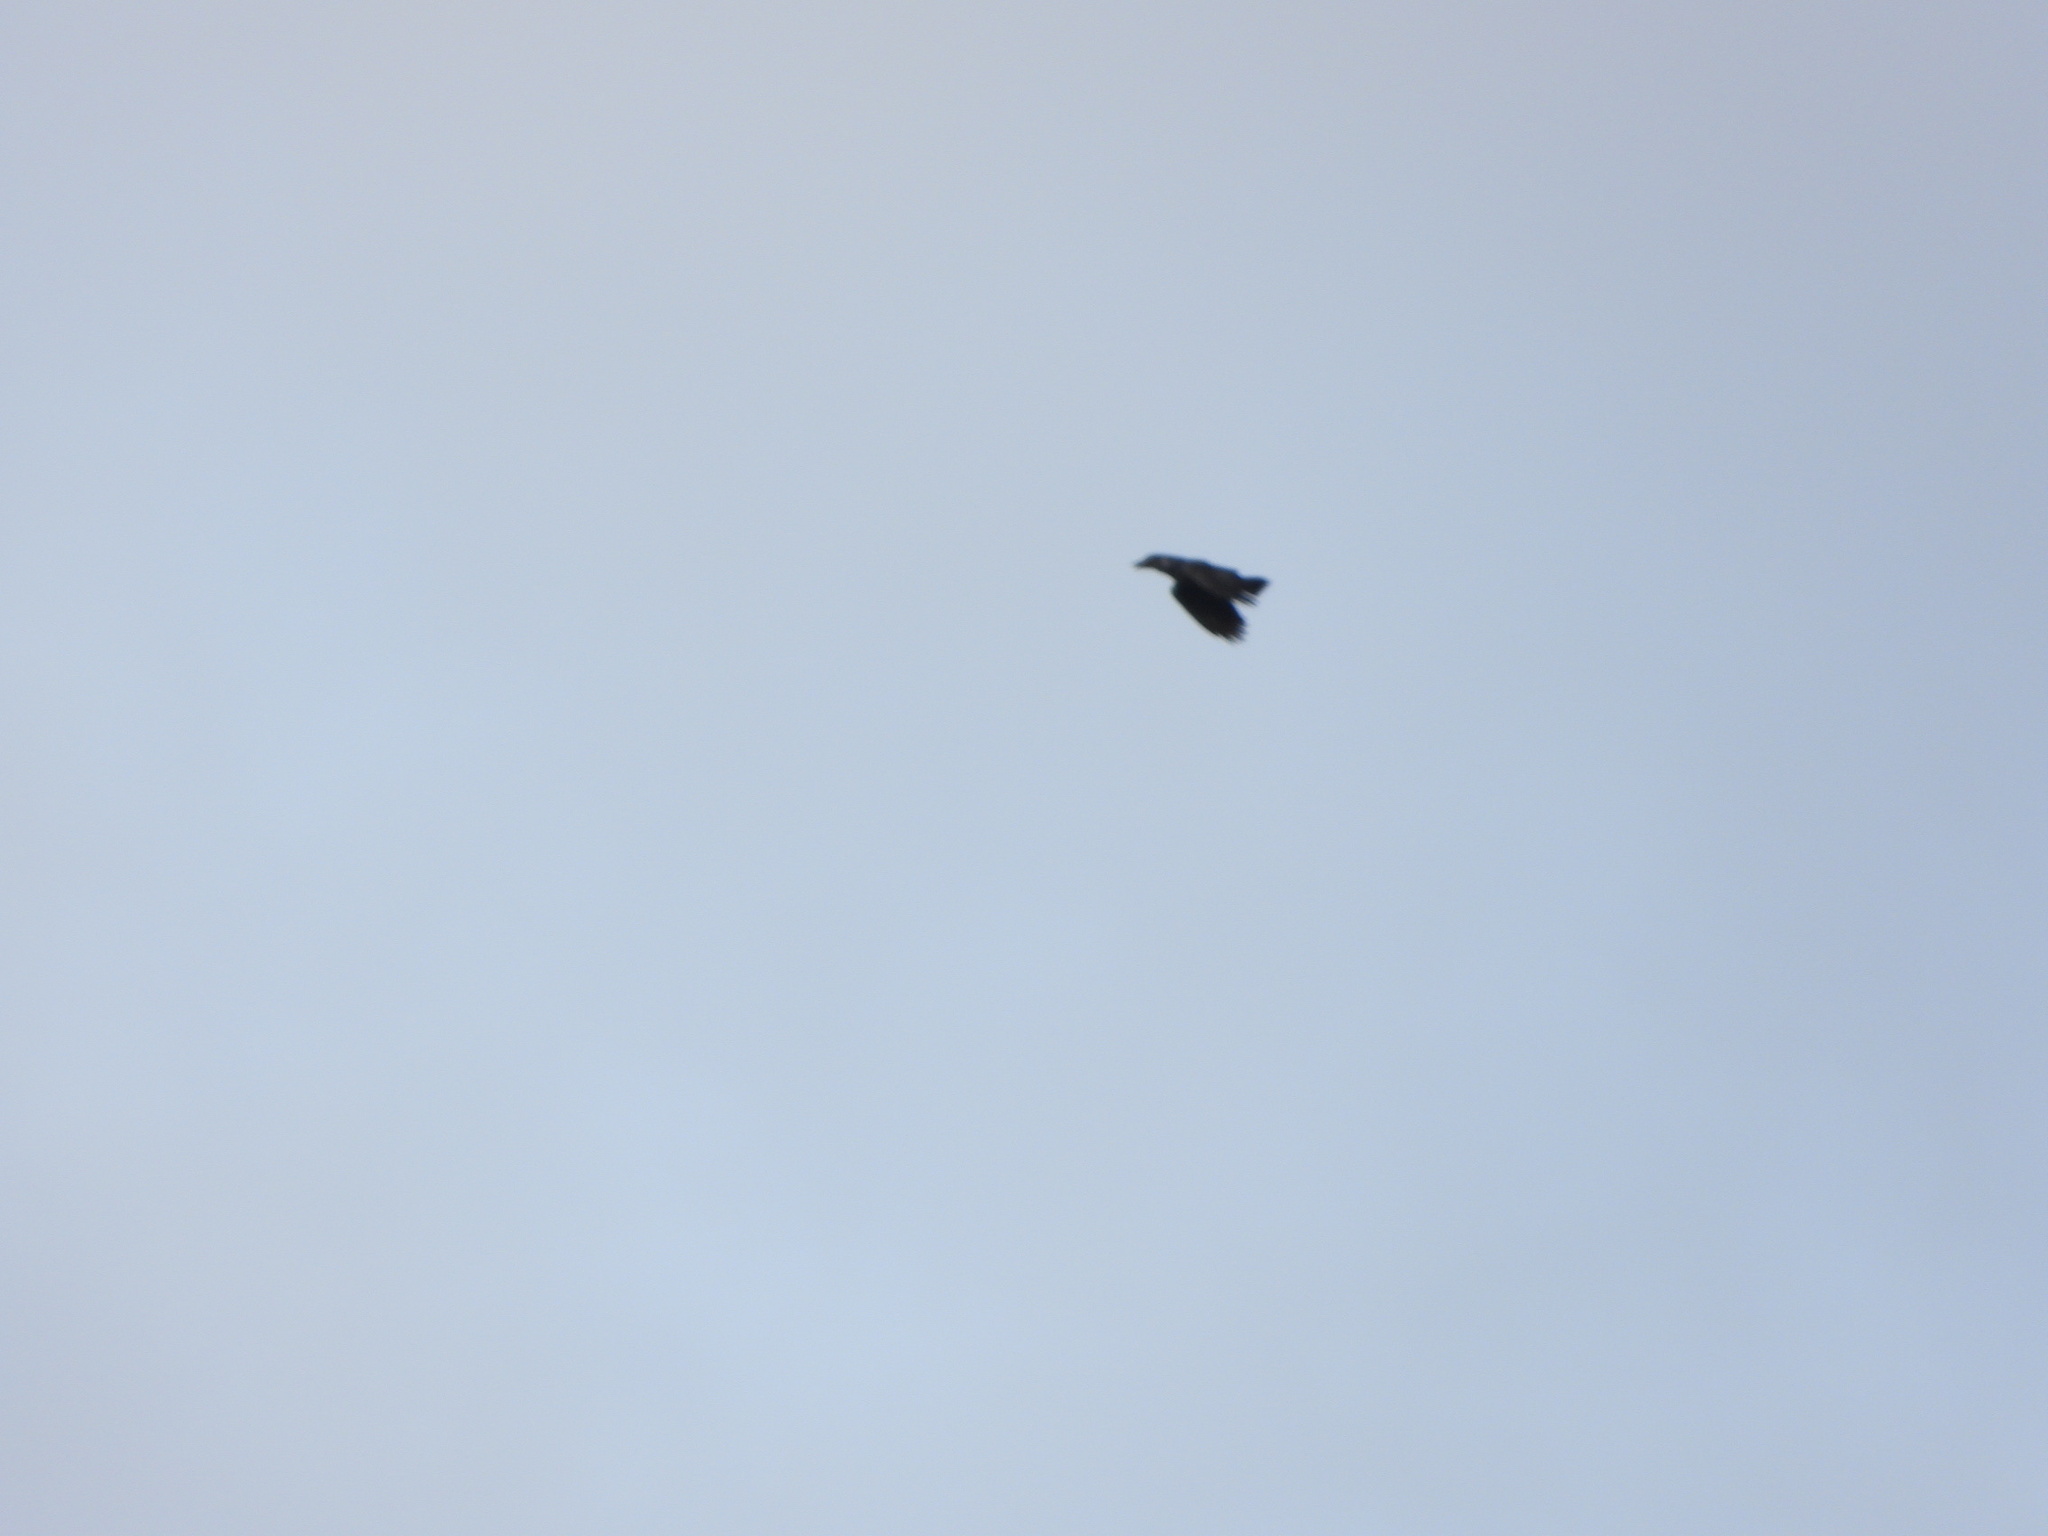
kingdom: Animalia
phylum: Chordata
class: Aves
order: Passeriformes
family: Corvidae
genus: Corvus
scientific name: Corvus corax
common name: Common raven
